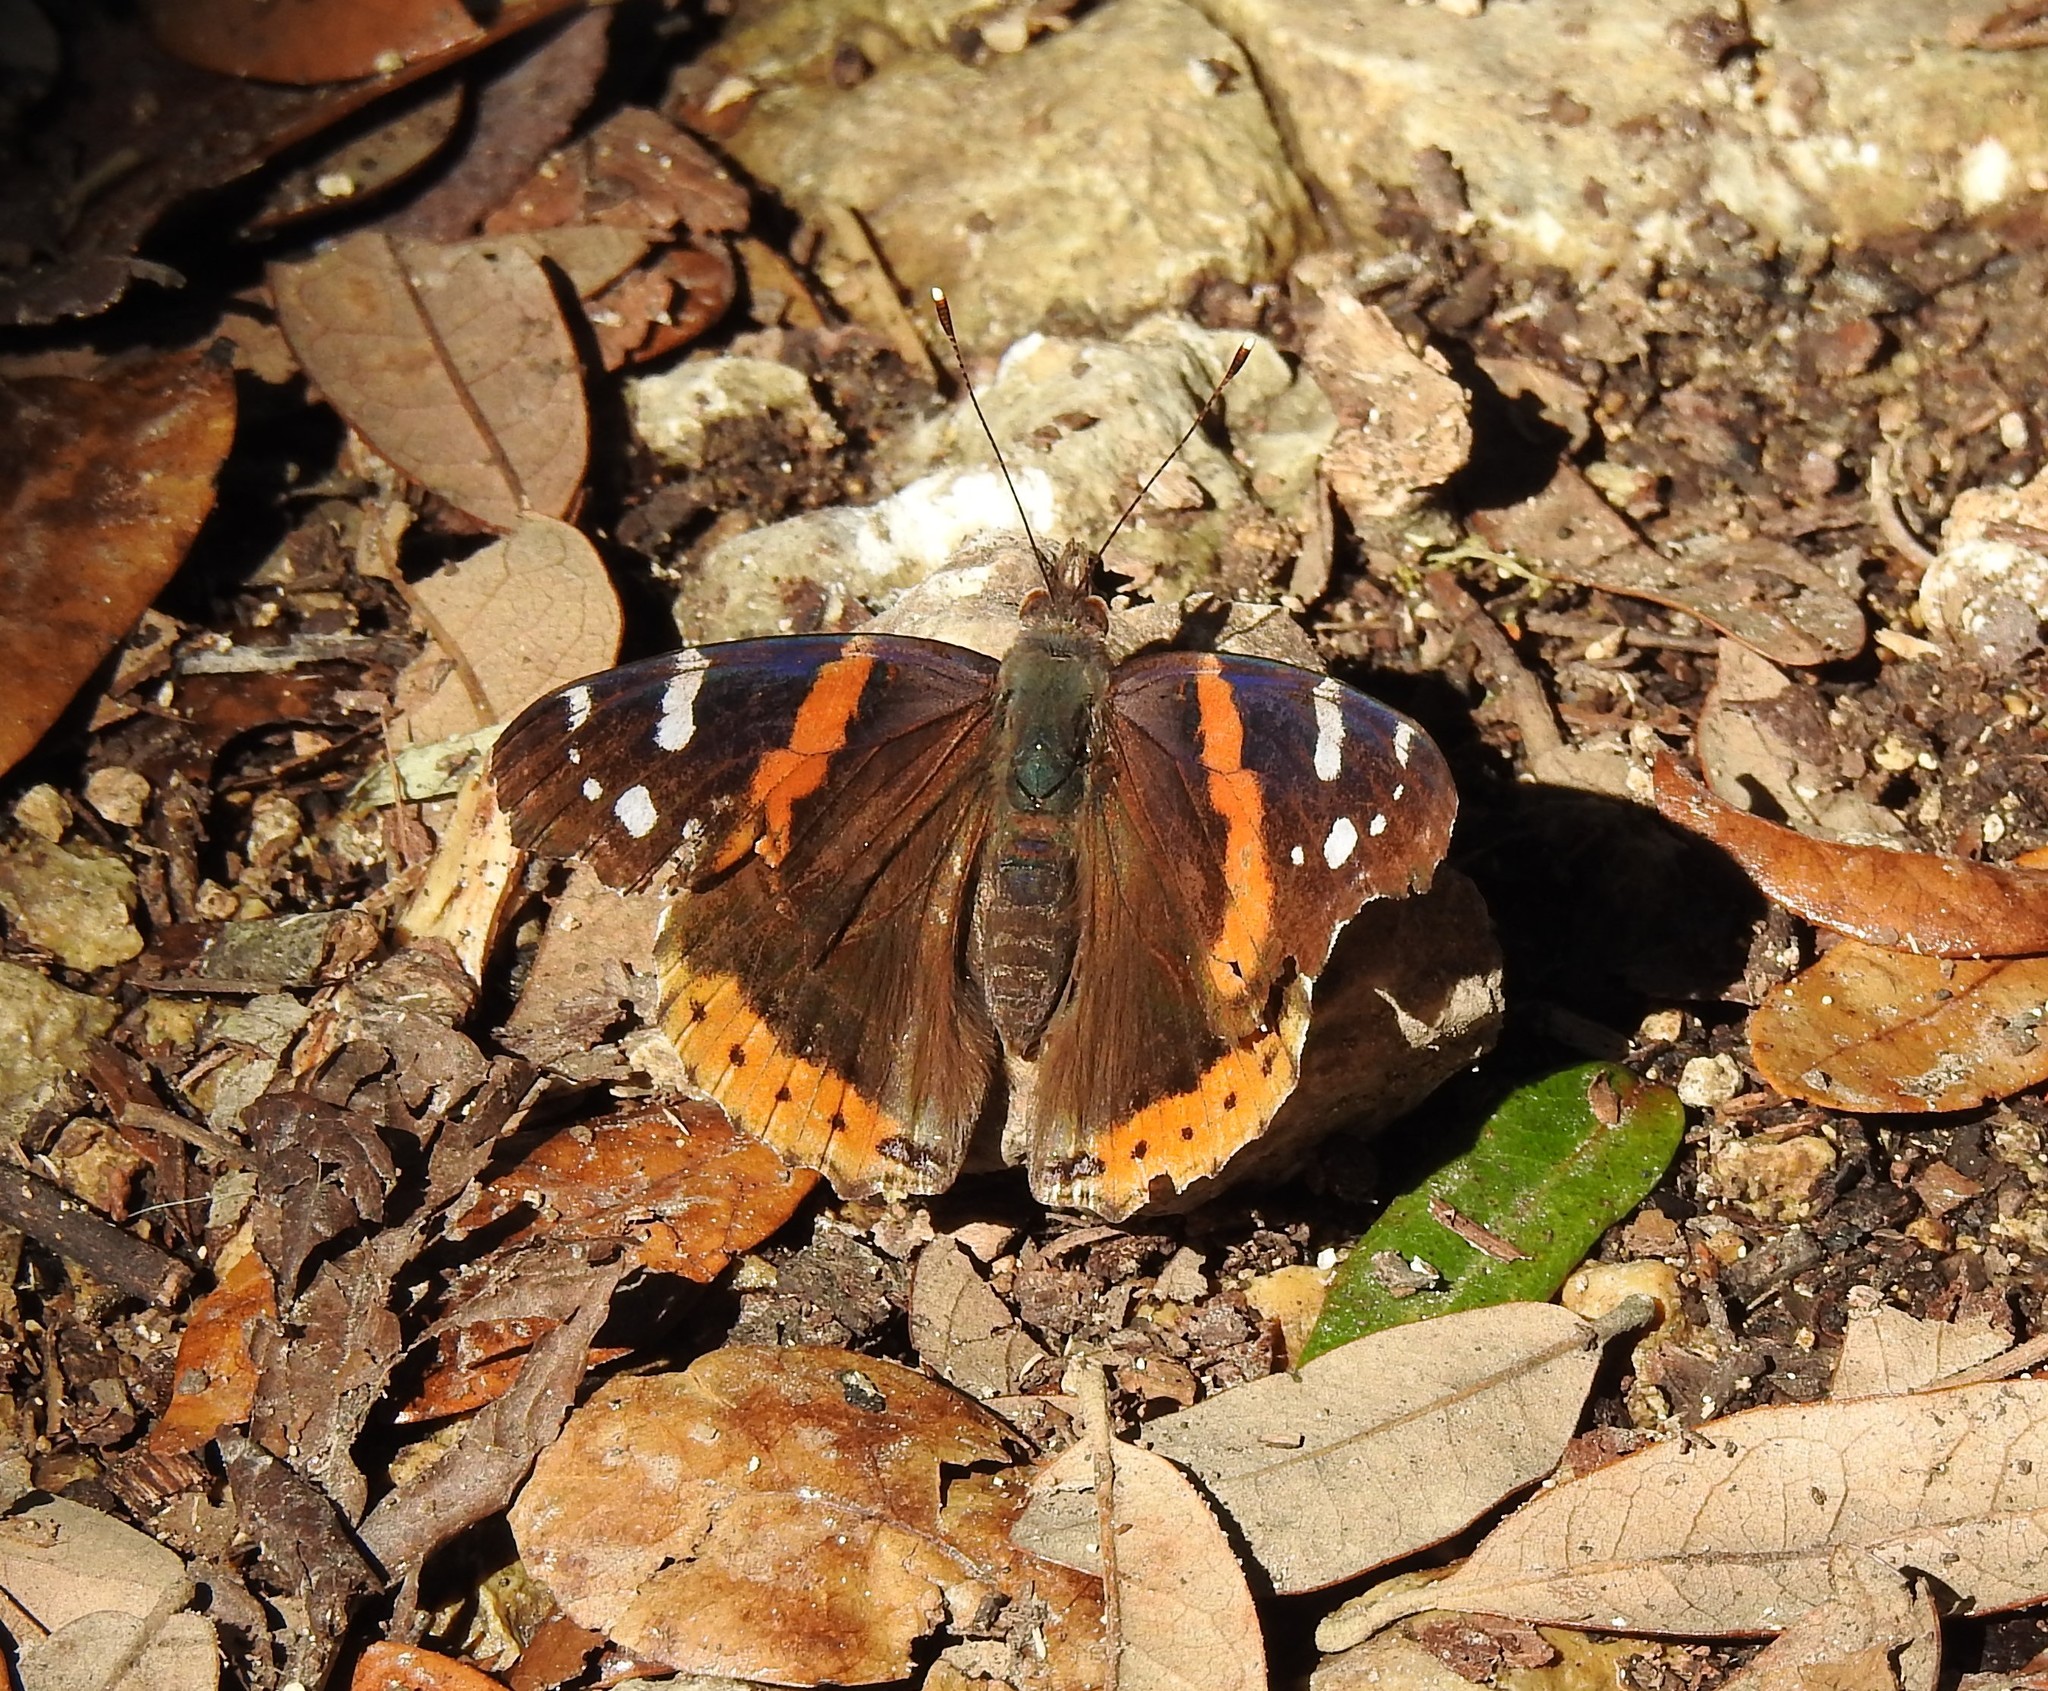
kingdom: Animalia
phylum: Arthropoda
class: Insecta
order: Lepidoptera
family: Nymphalidae
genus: Vanessa
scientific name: Vanessa atalanta
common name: Red admiral
